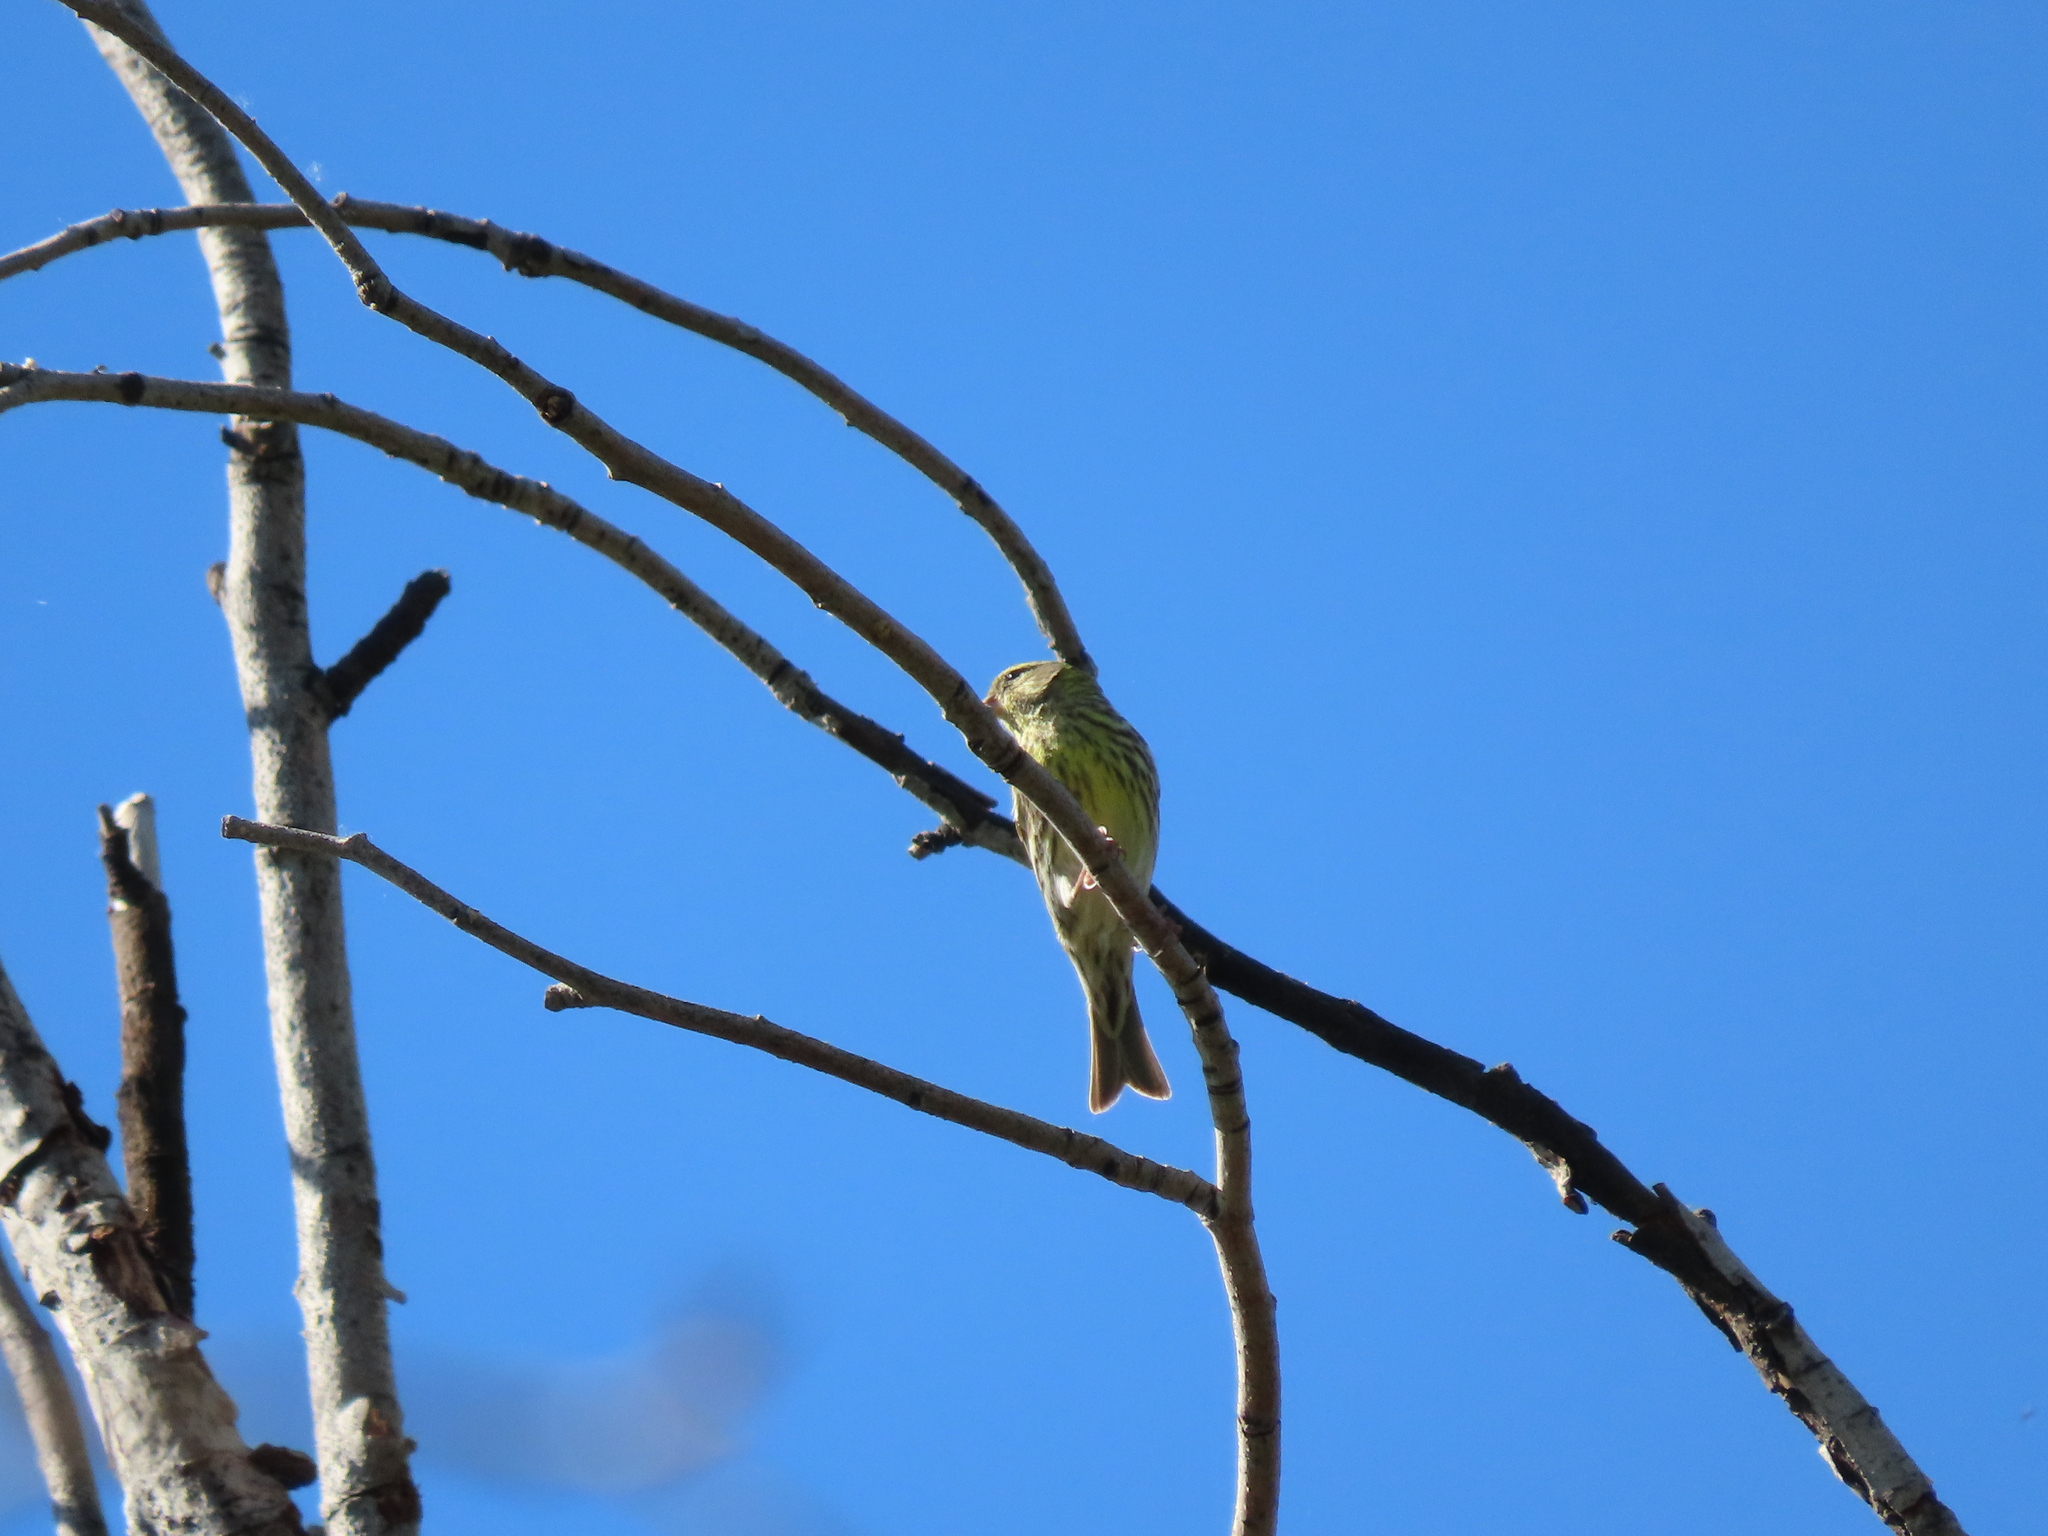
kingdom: Animalia
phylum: Chordata
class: Aves
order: Passeriformes
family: Fringillidae
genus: Serinus
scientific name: Serinus serinus
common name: European serin
